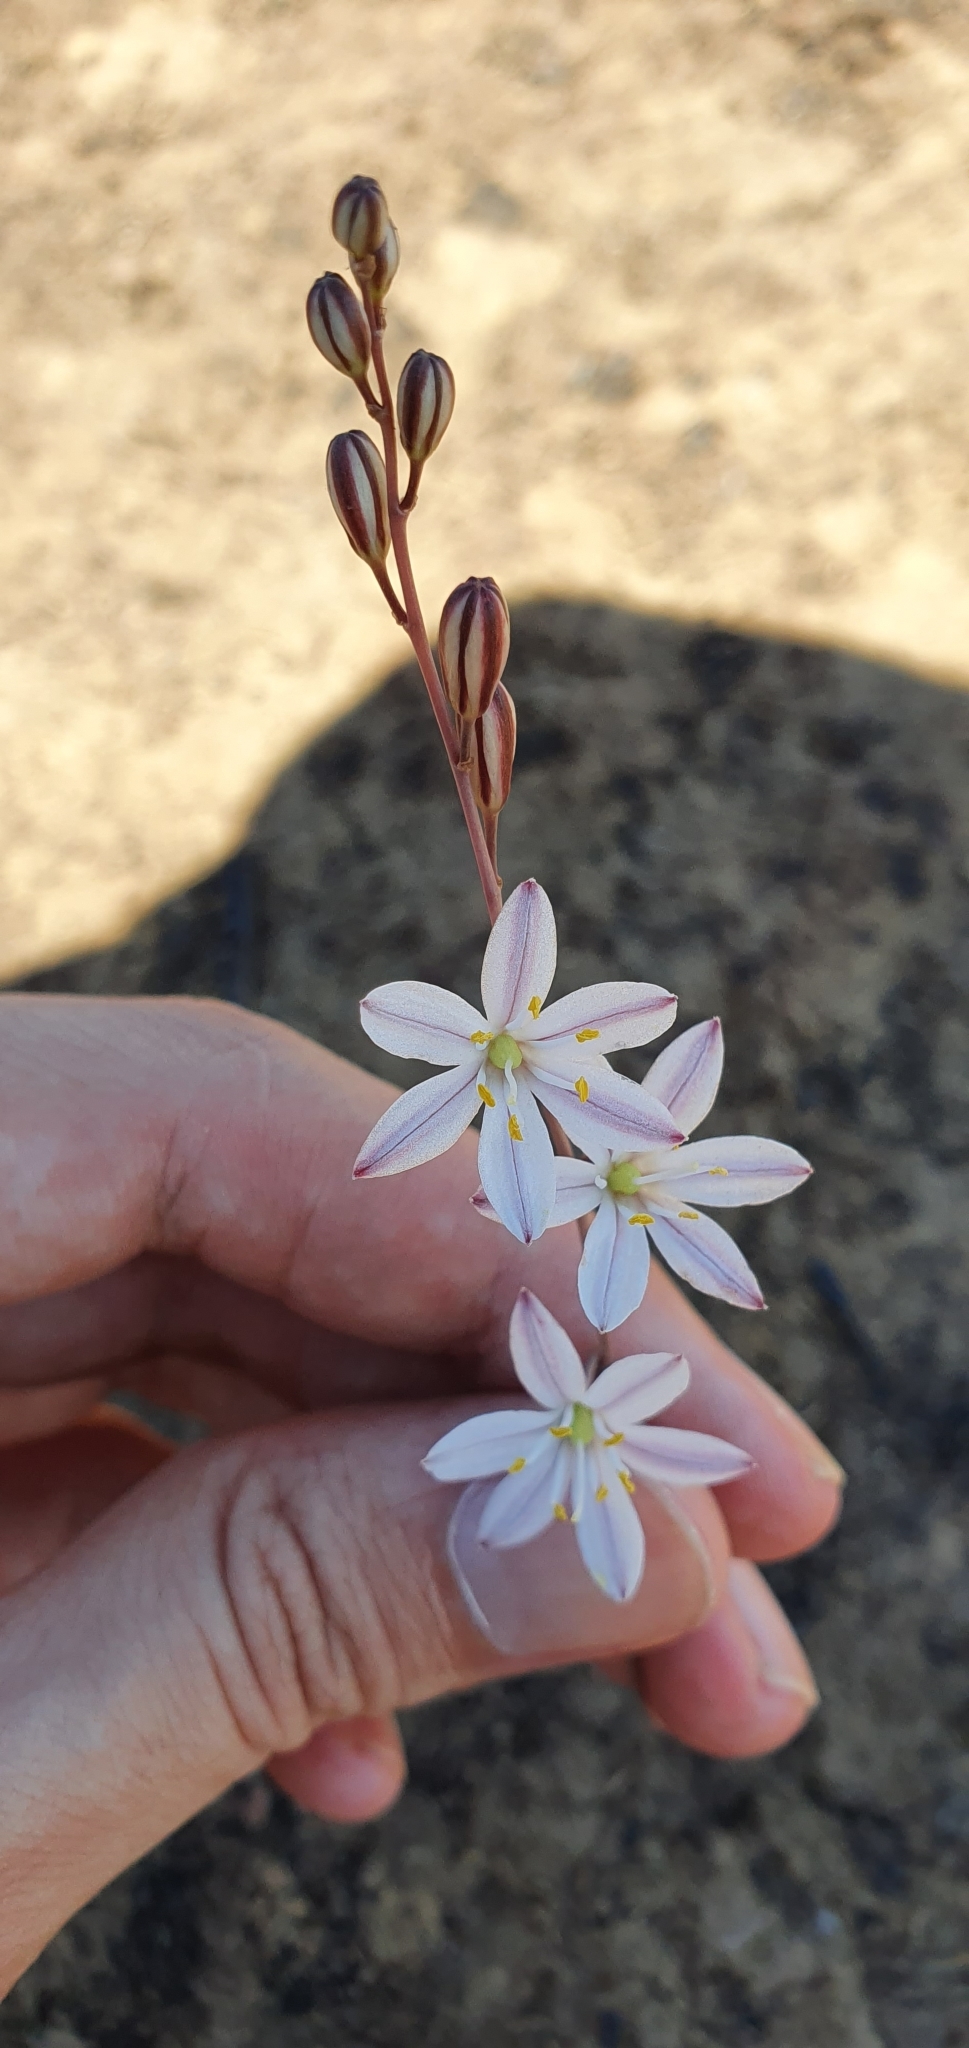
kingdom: Plantae
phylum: Tracheophyta
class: Liliopsida
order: Asparagales
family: Asparagaceae
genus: Drimia
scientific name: Drimia fugax
